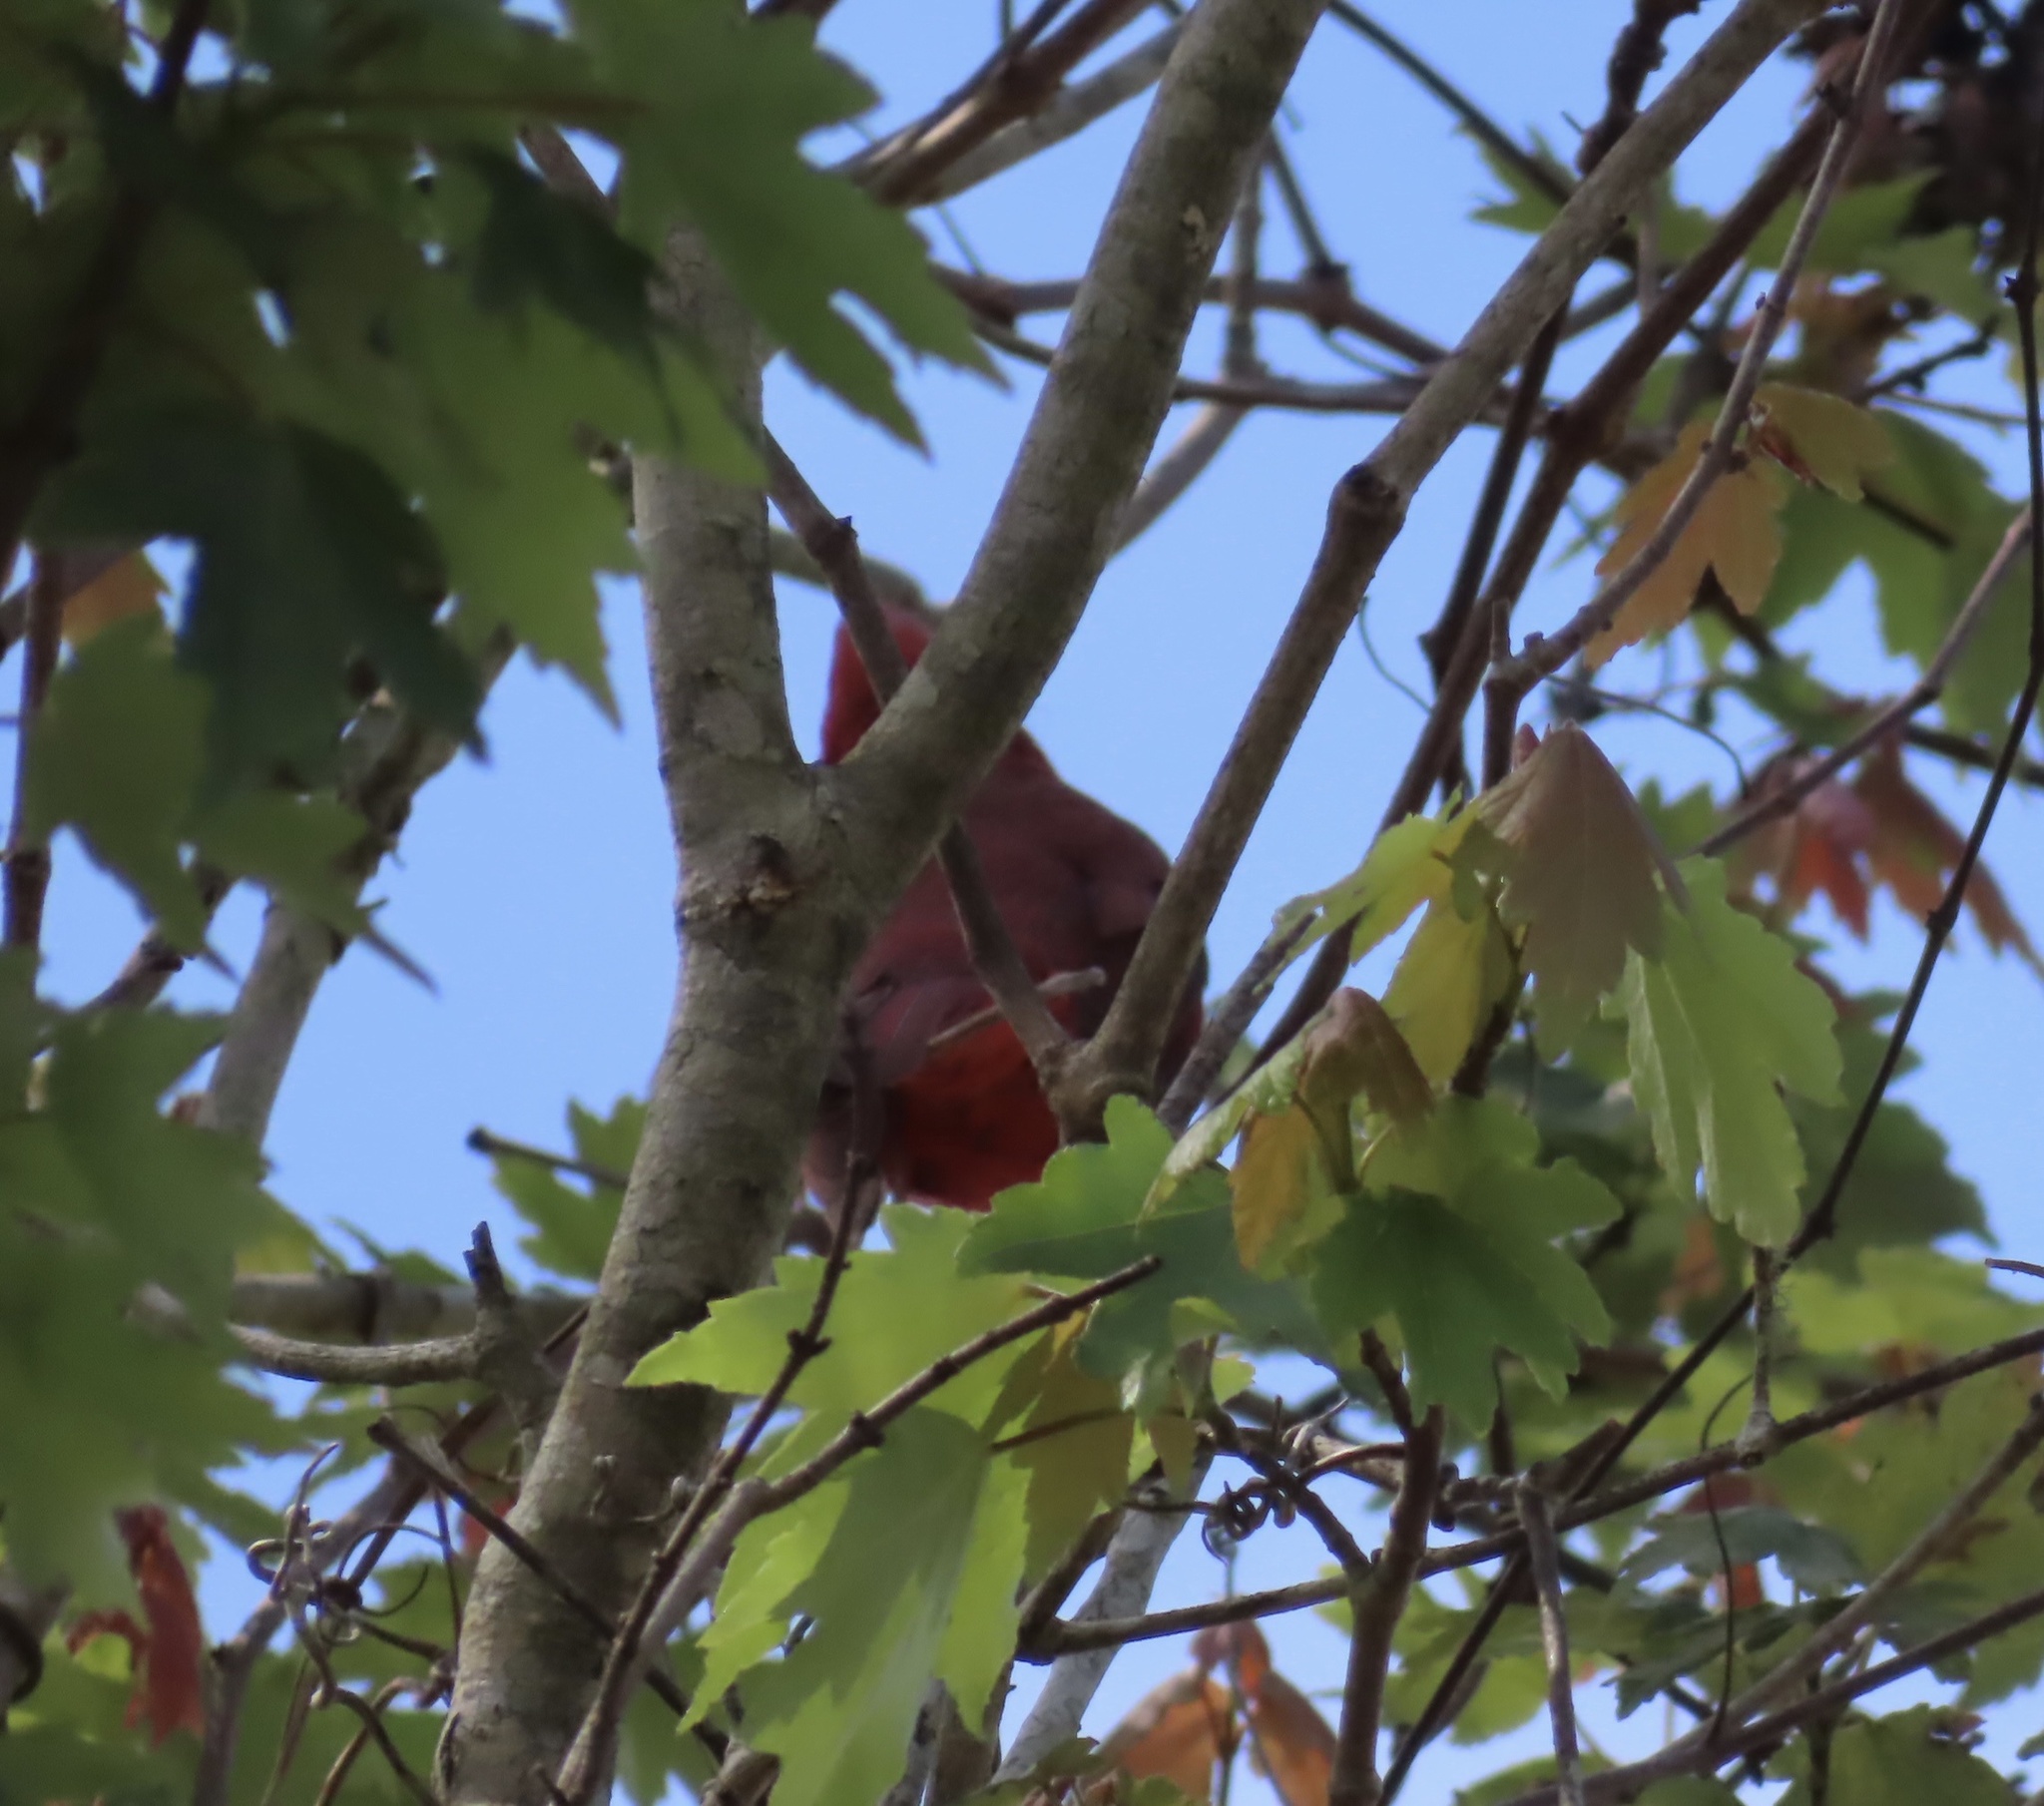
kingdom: Animalia
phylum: Chordata
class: Aves
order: Passeriformes
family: Cardinalidae
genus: Cardinalis
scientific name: Cardinalis cardinalis
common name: Northern cardinal
